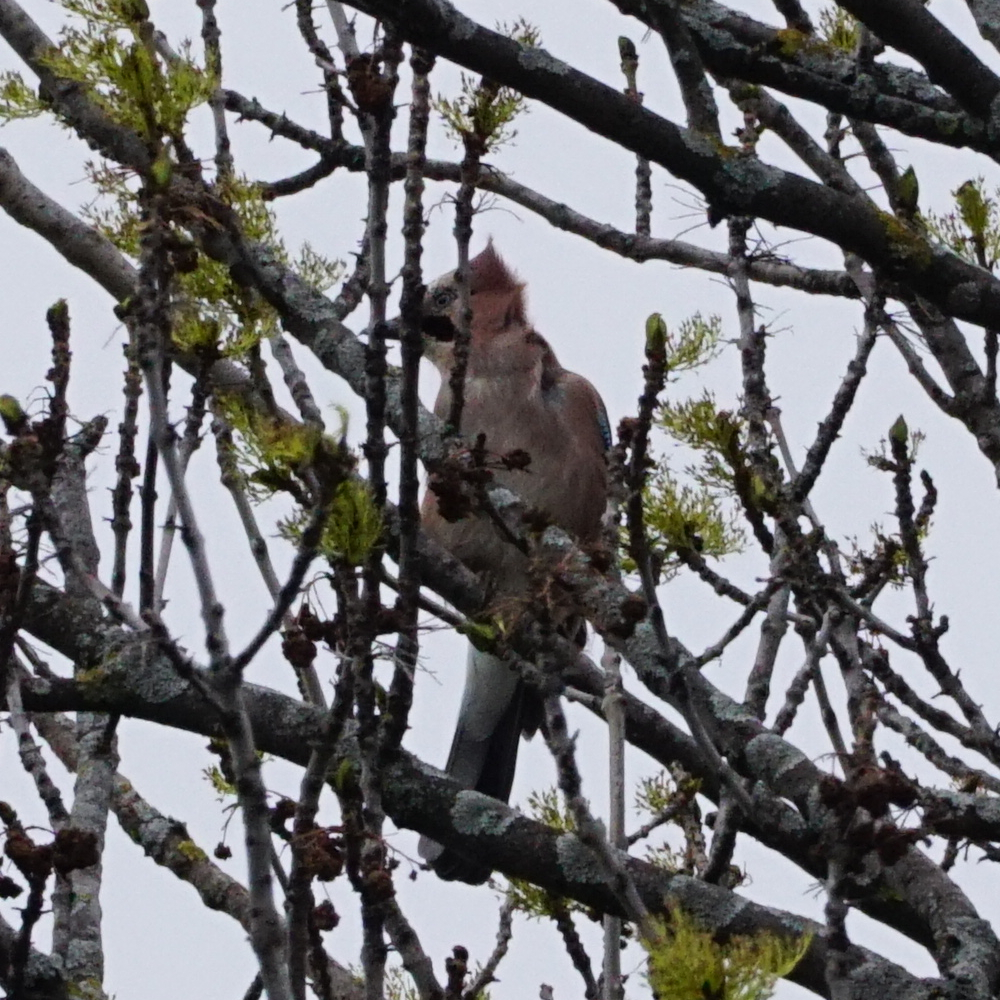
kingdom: Animalia
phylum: Chordata
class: Aves
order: Passeriformes
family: Corvidae
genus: Garrulus
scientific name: Garrulus glandarius
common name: Eurasian jay
